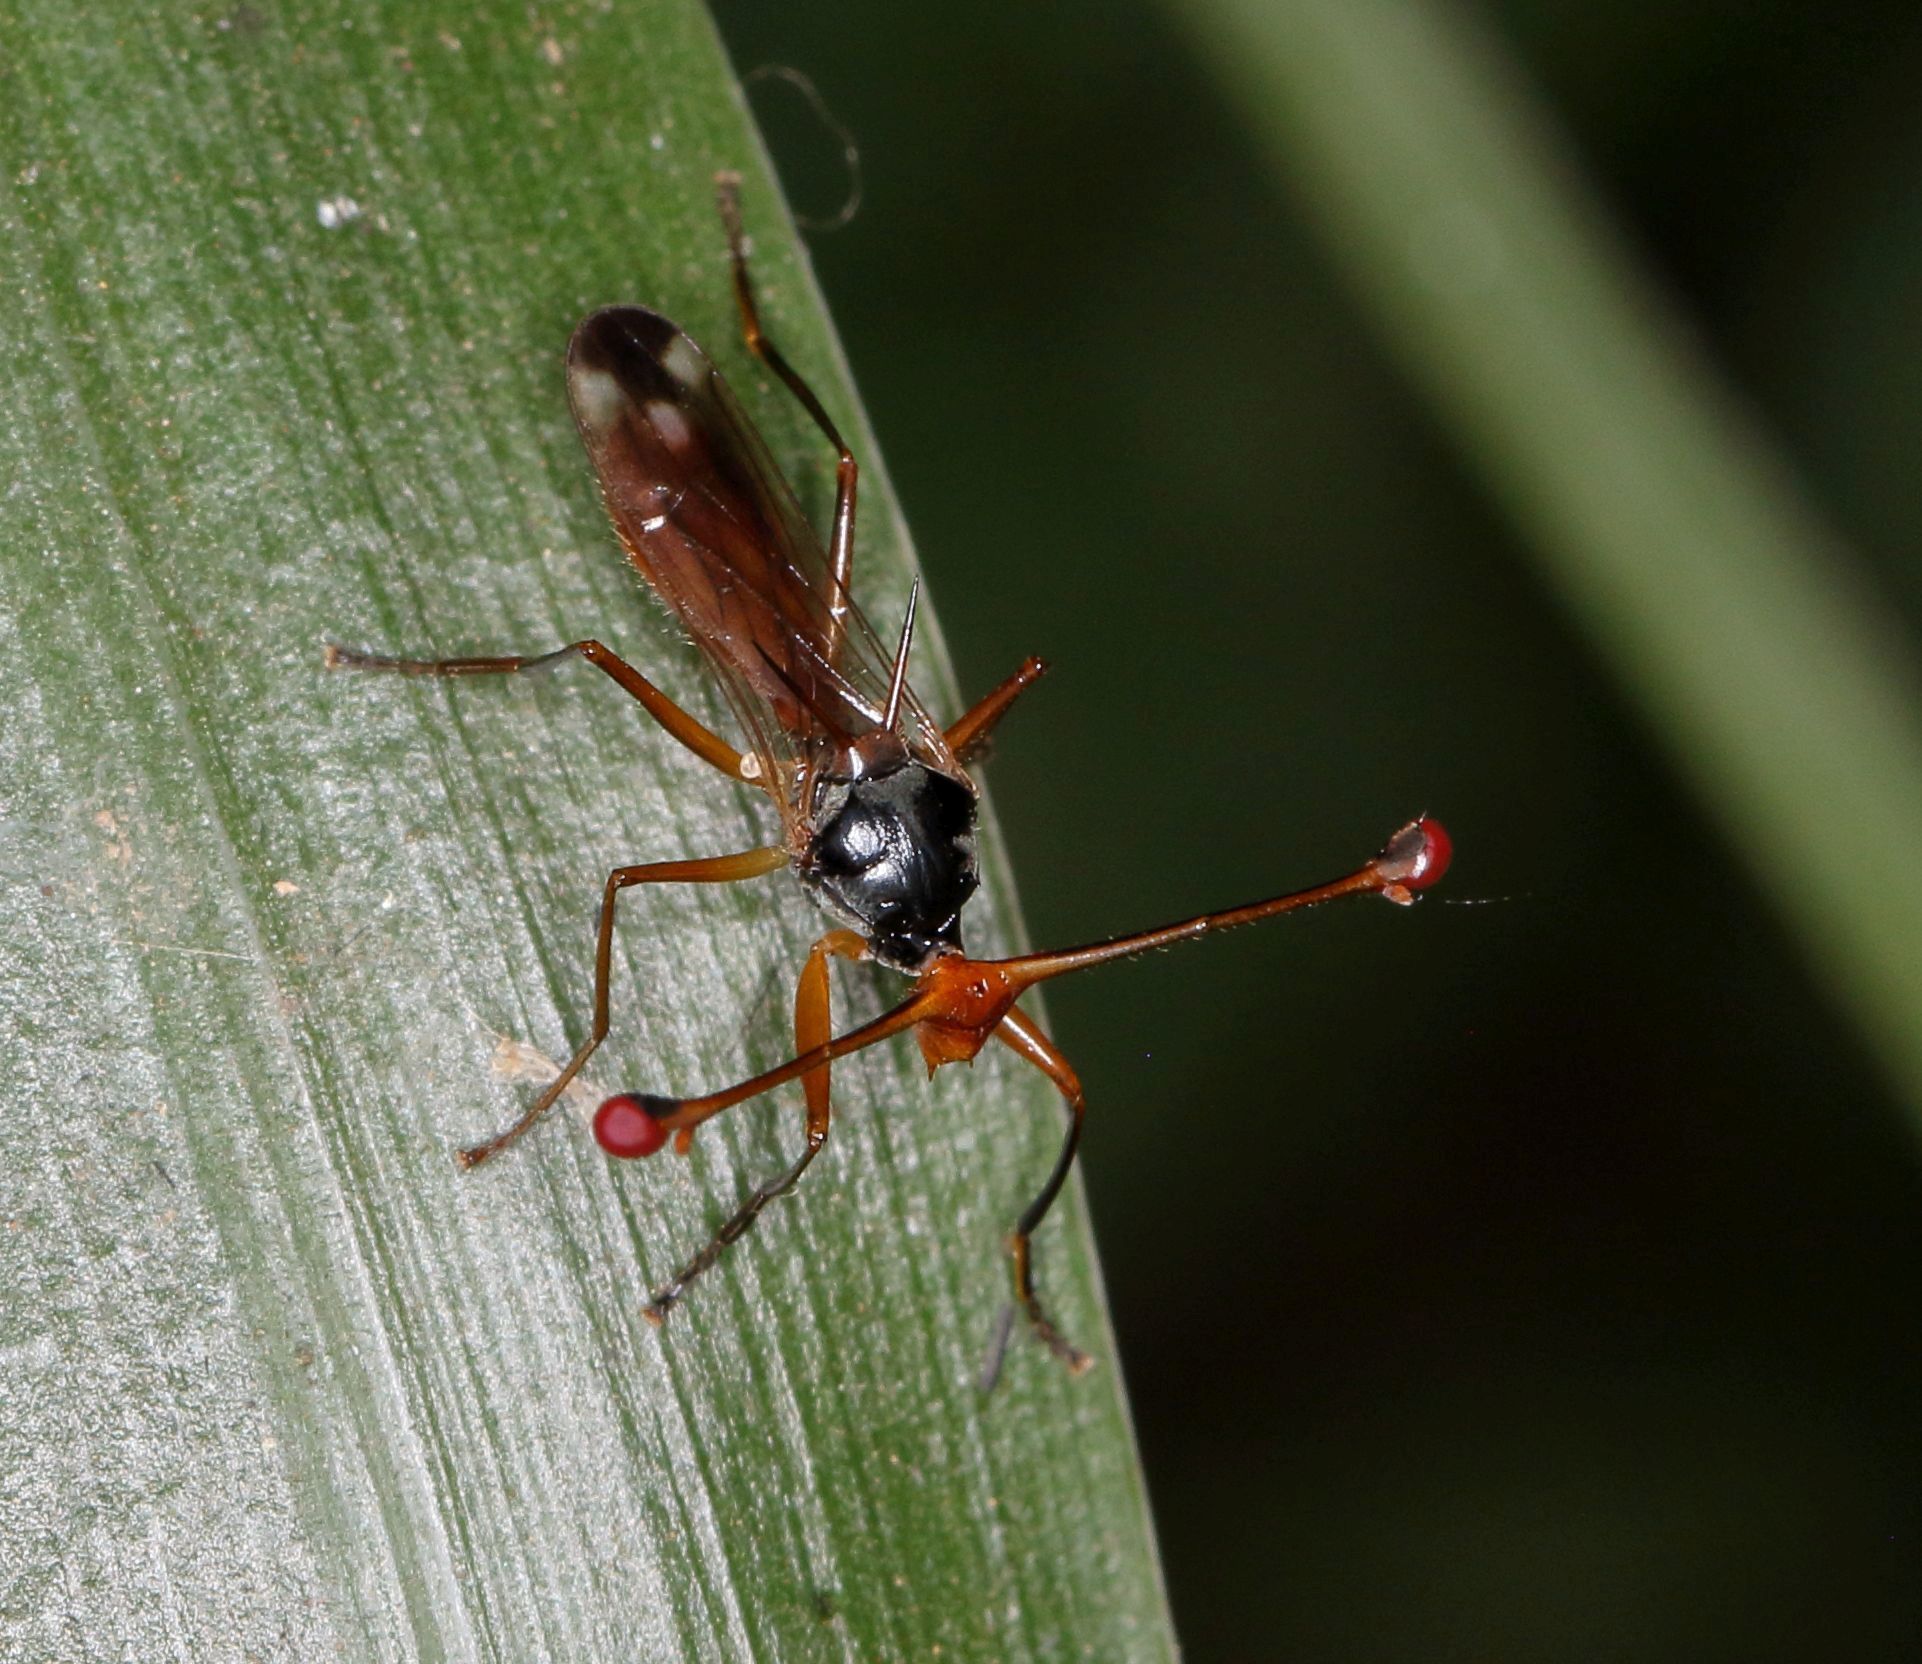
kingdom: Animalia
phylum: Arthropoda
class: Insecta
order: Diptera
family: Diopsidae
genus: Diopsis
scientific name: Diopsis stuckenbergi
